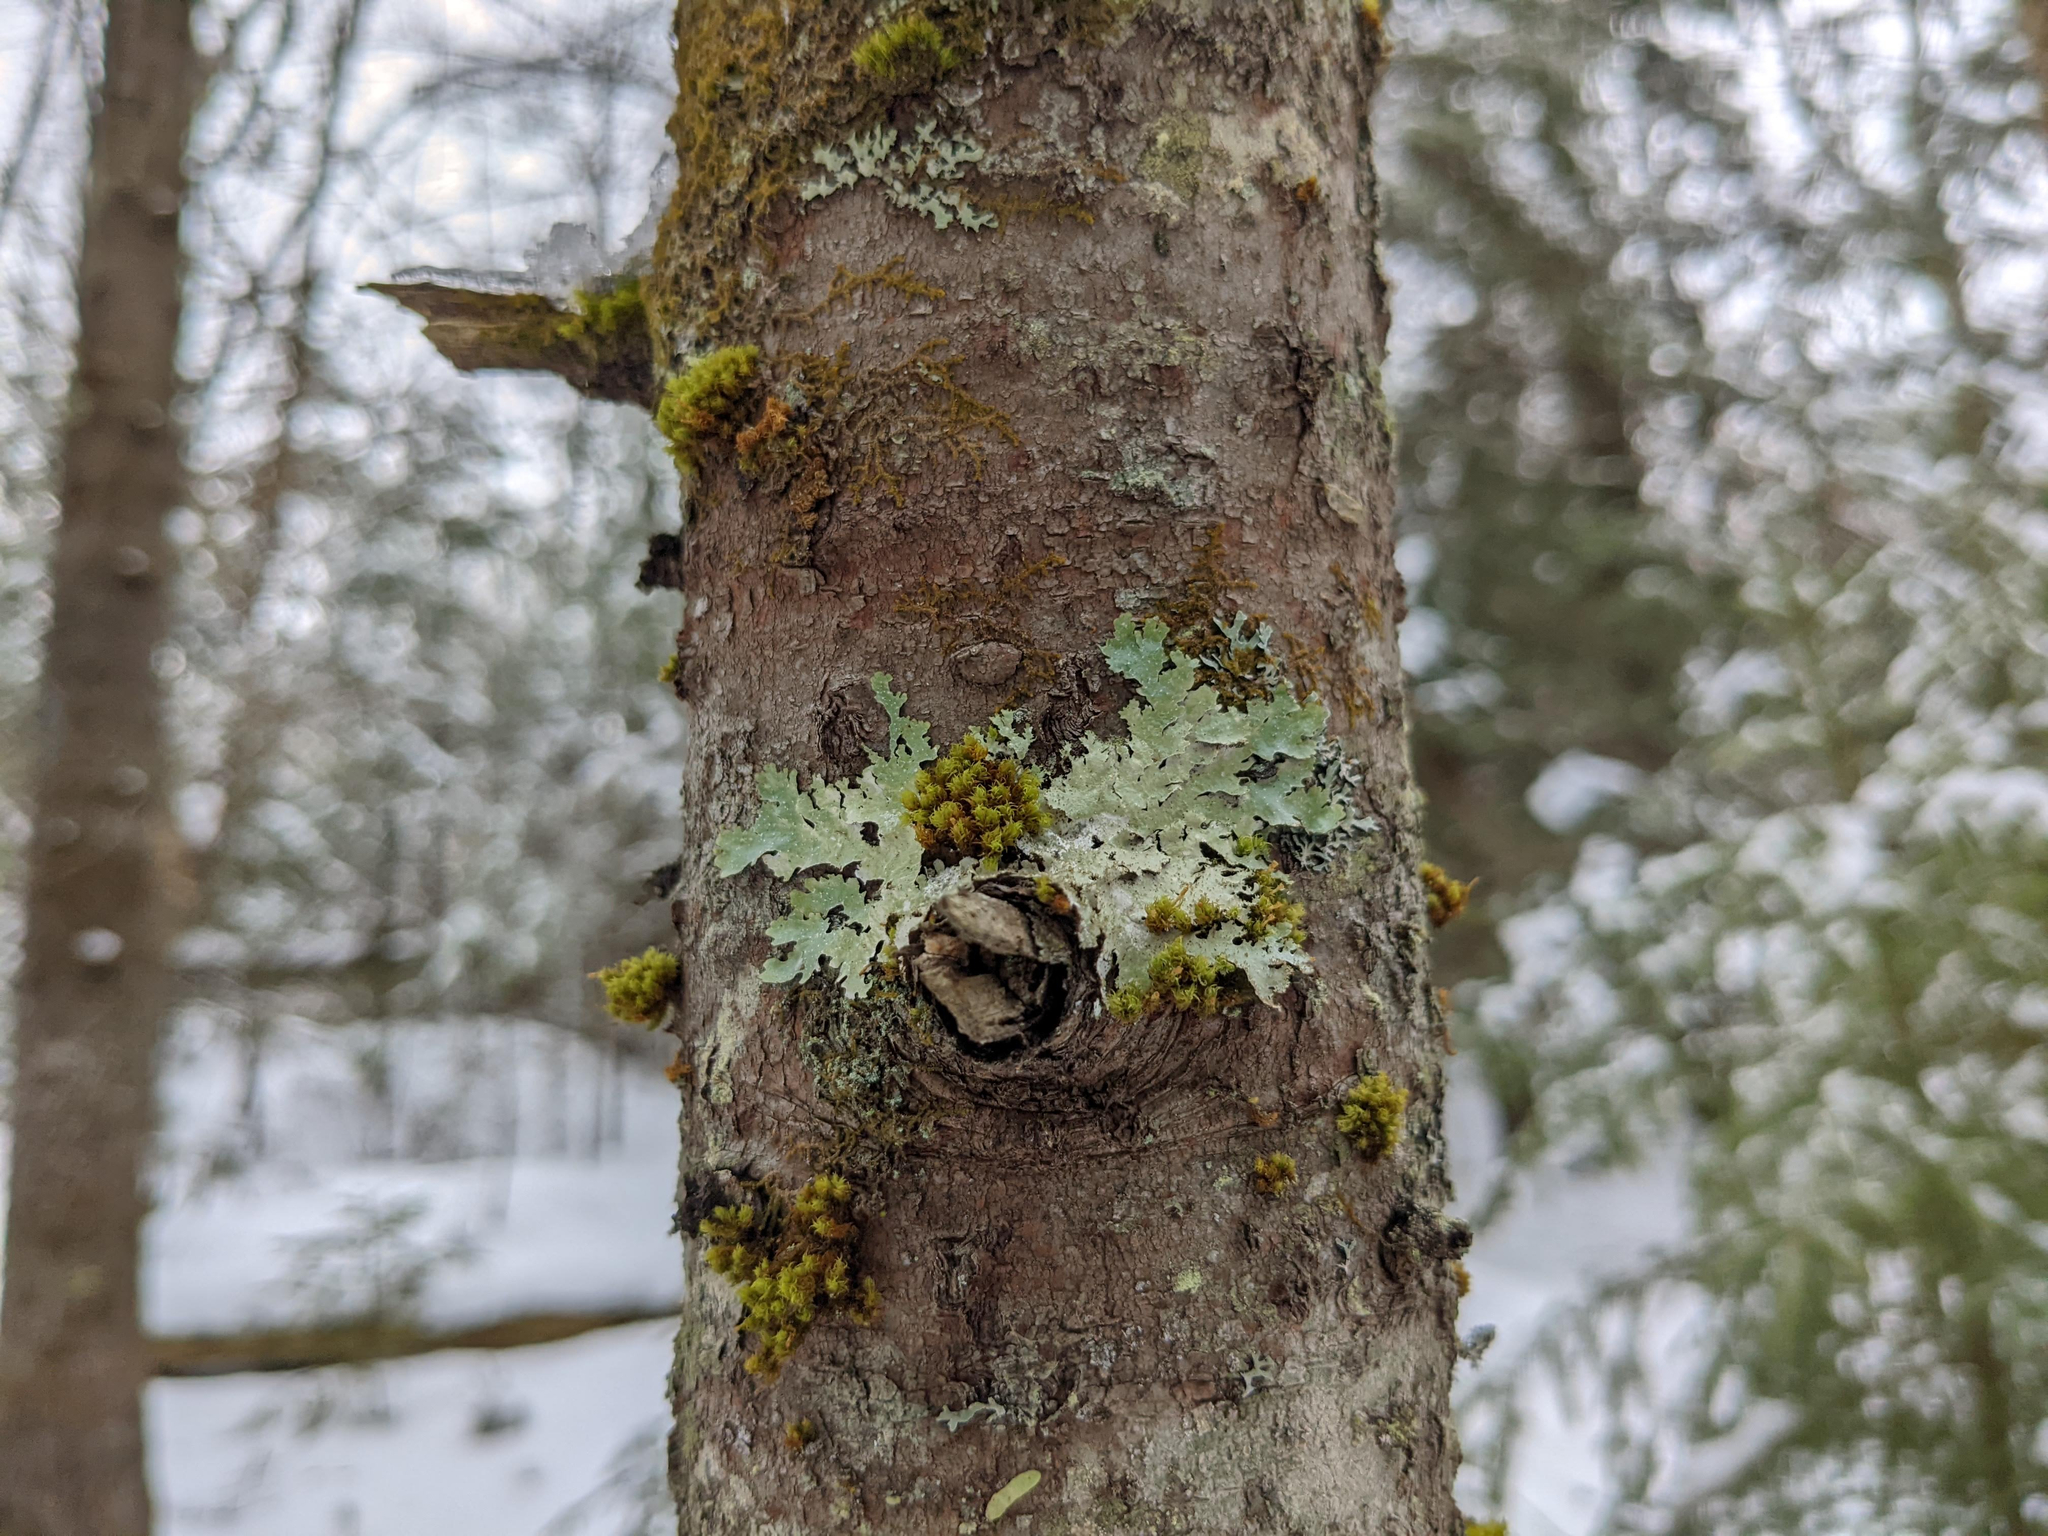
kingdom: Plantae
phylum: Bryophyta
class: Bryopsida
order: Orthotrichales
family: Orthotrichaceae
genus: Ulota
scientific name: Ulota crispa
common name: Crisped pincushion moss
